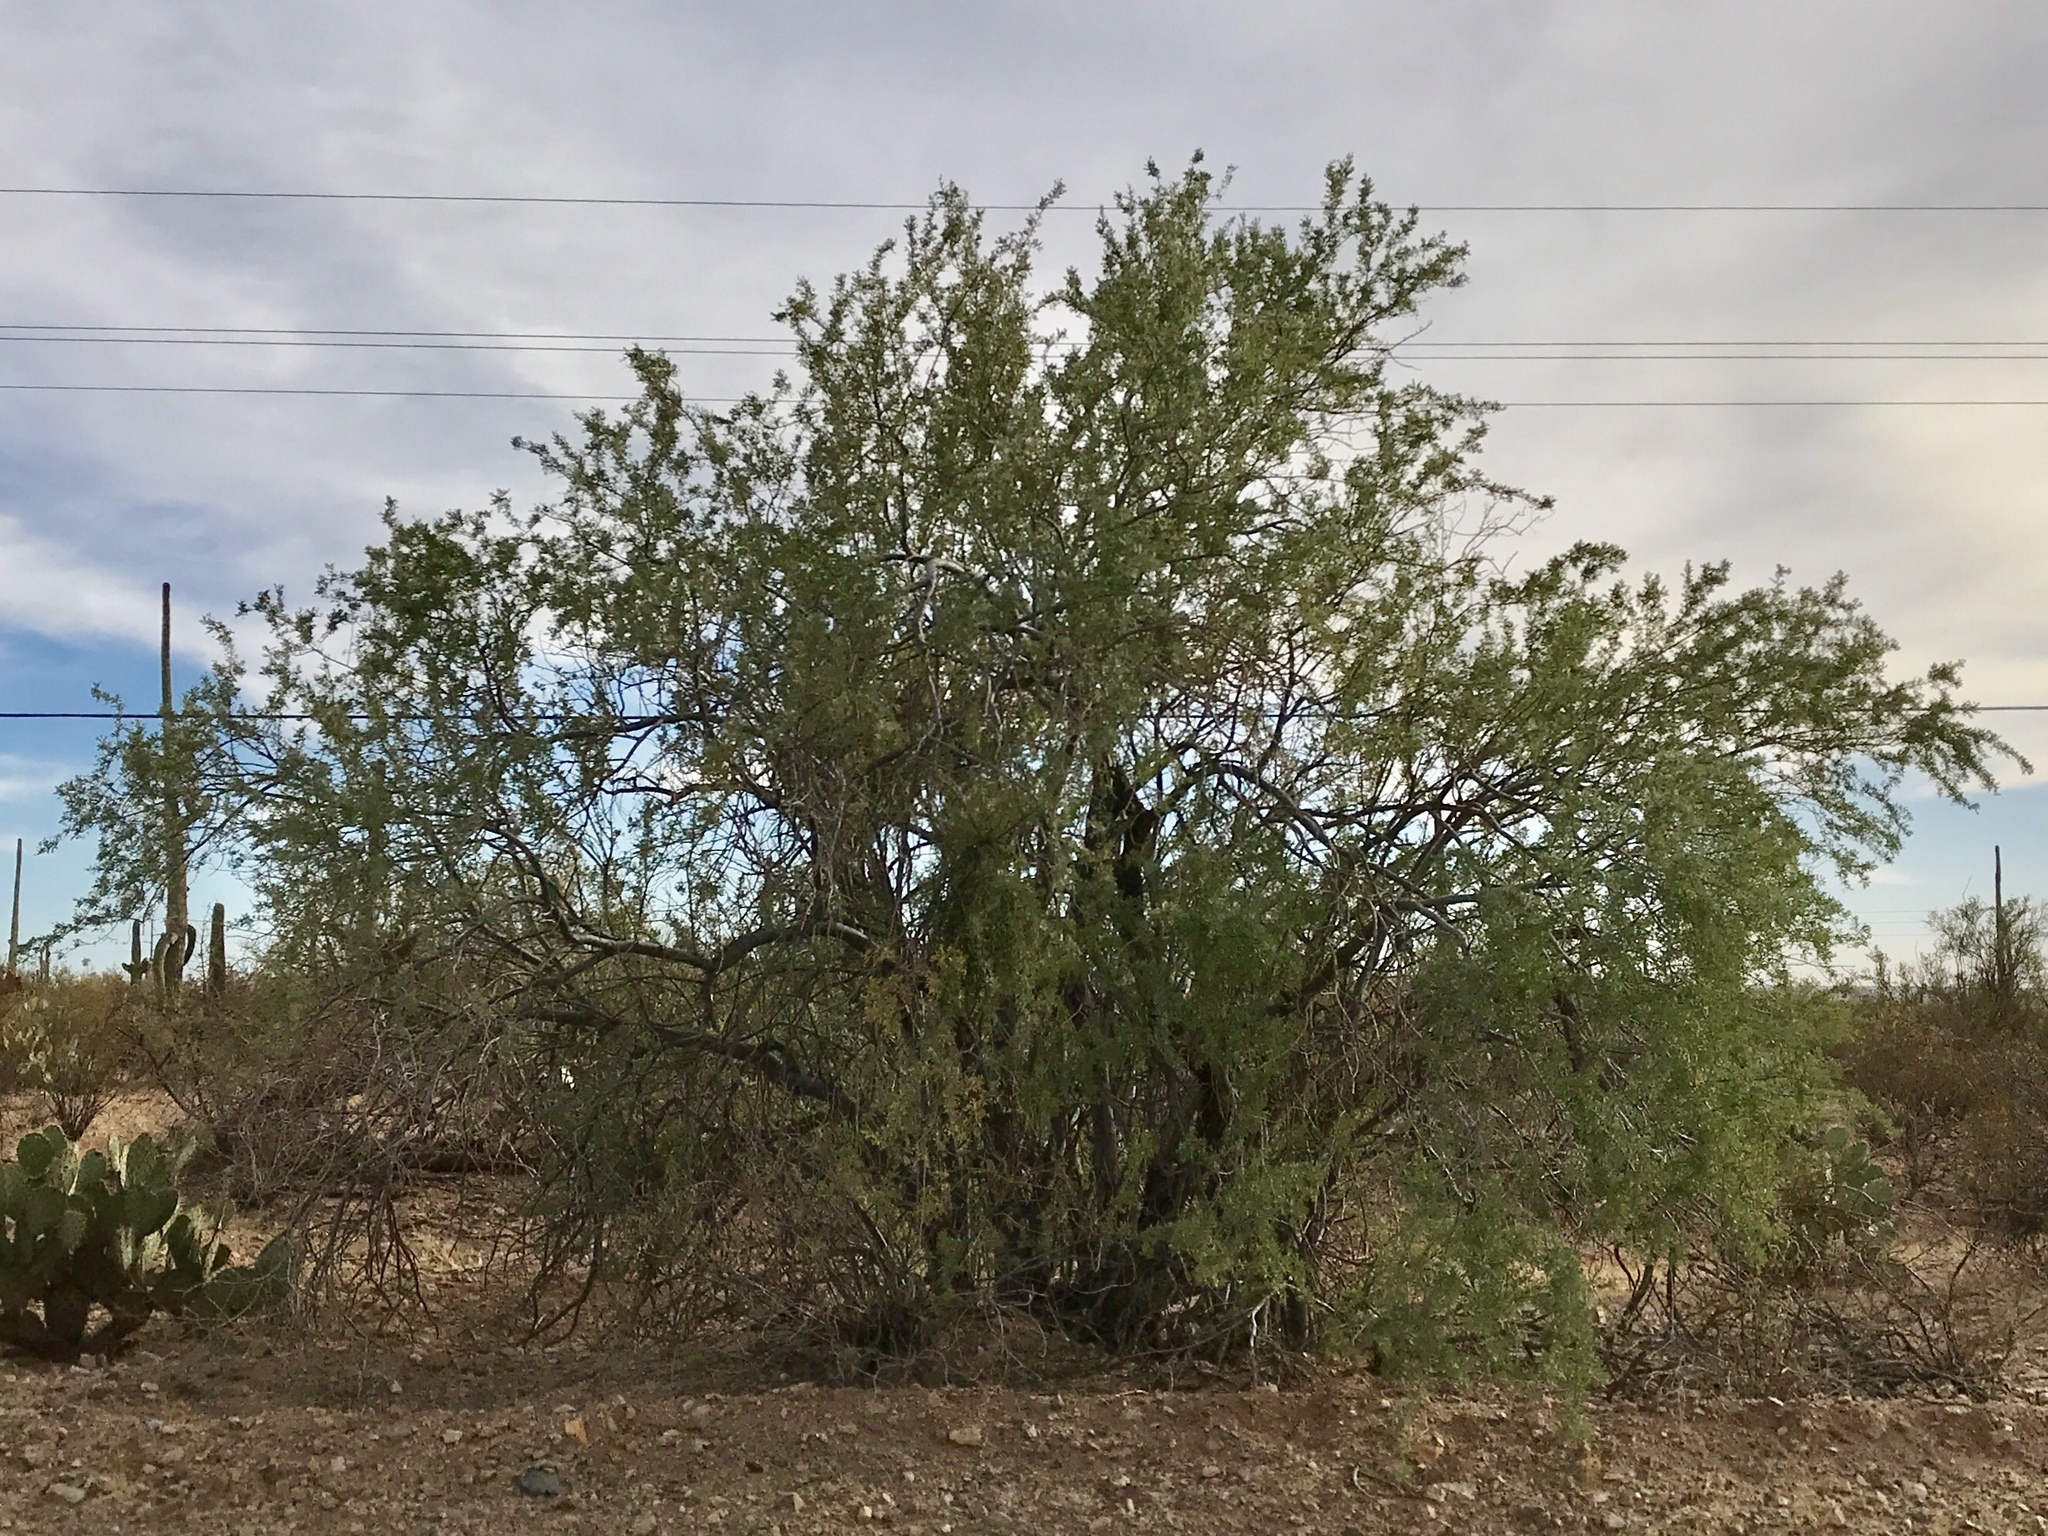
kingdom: Plantae
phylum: Tracheophyta
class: Magnoliopsida
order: Fabales
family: Fabaceae
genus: Olneya
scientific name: Olneya tesota
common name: Desert ironwood
